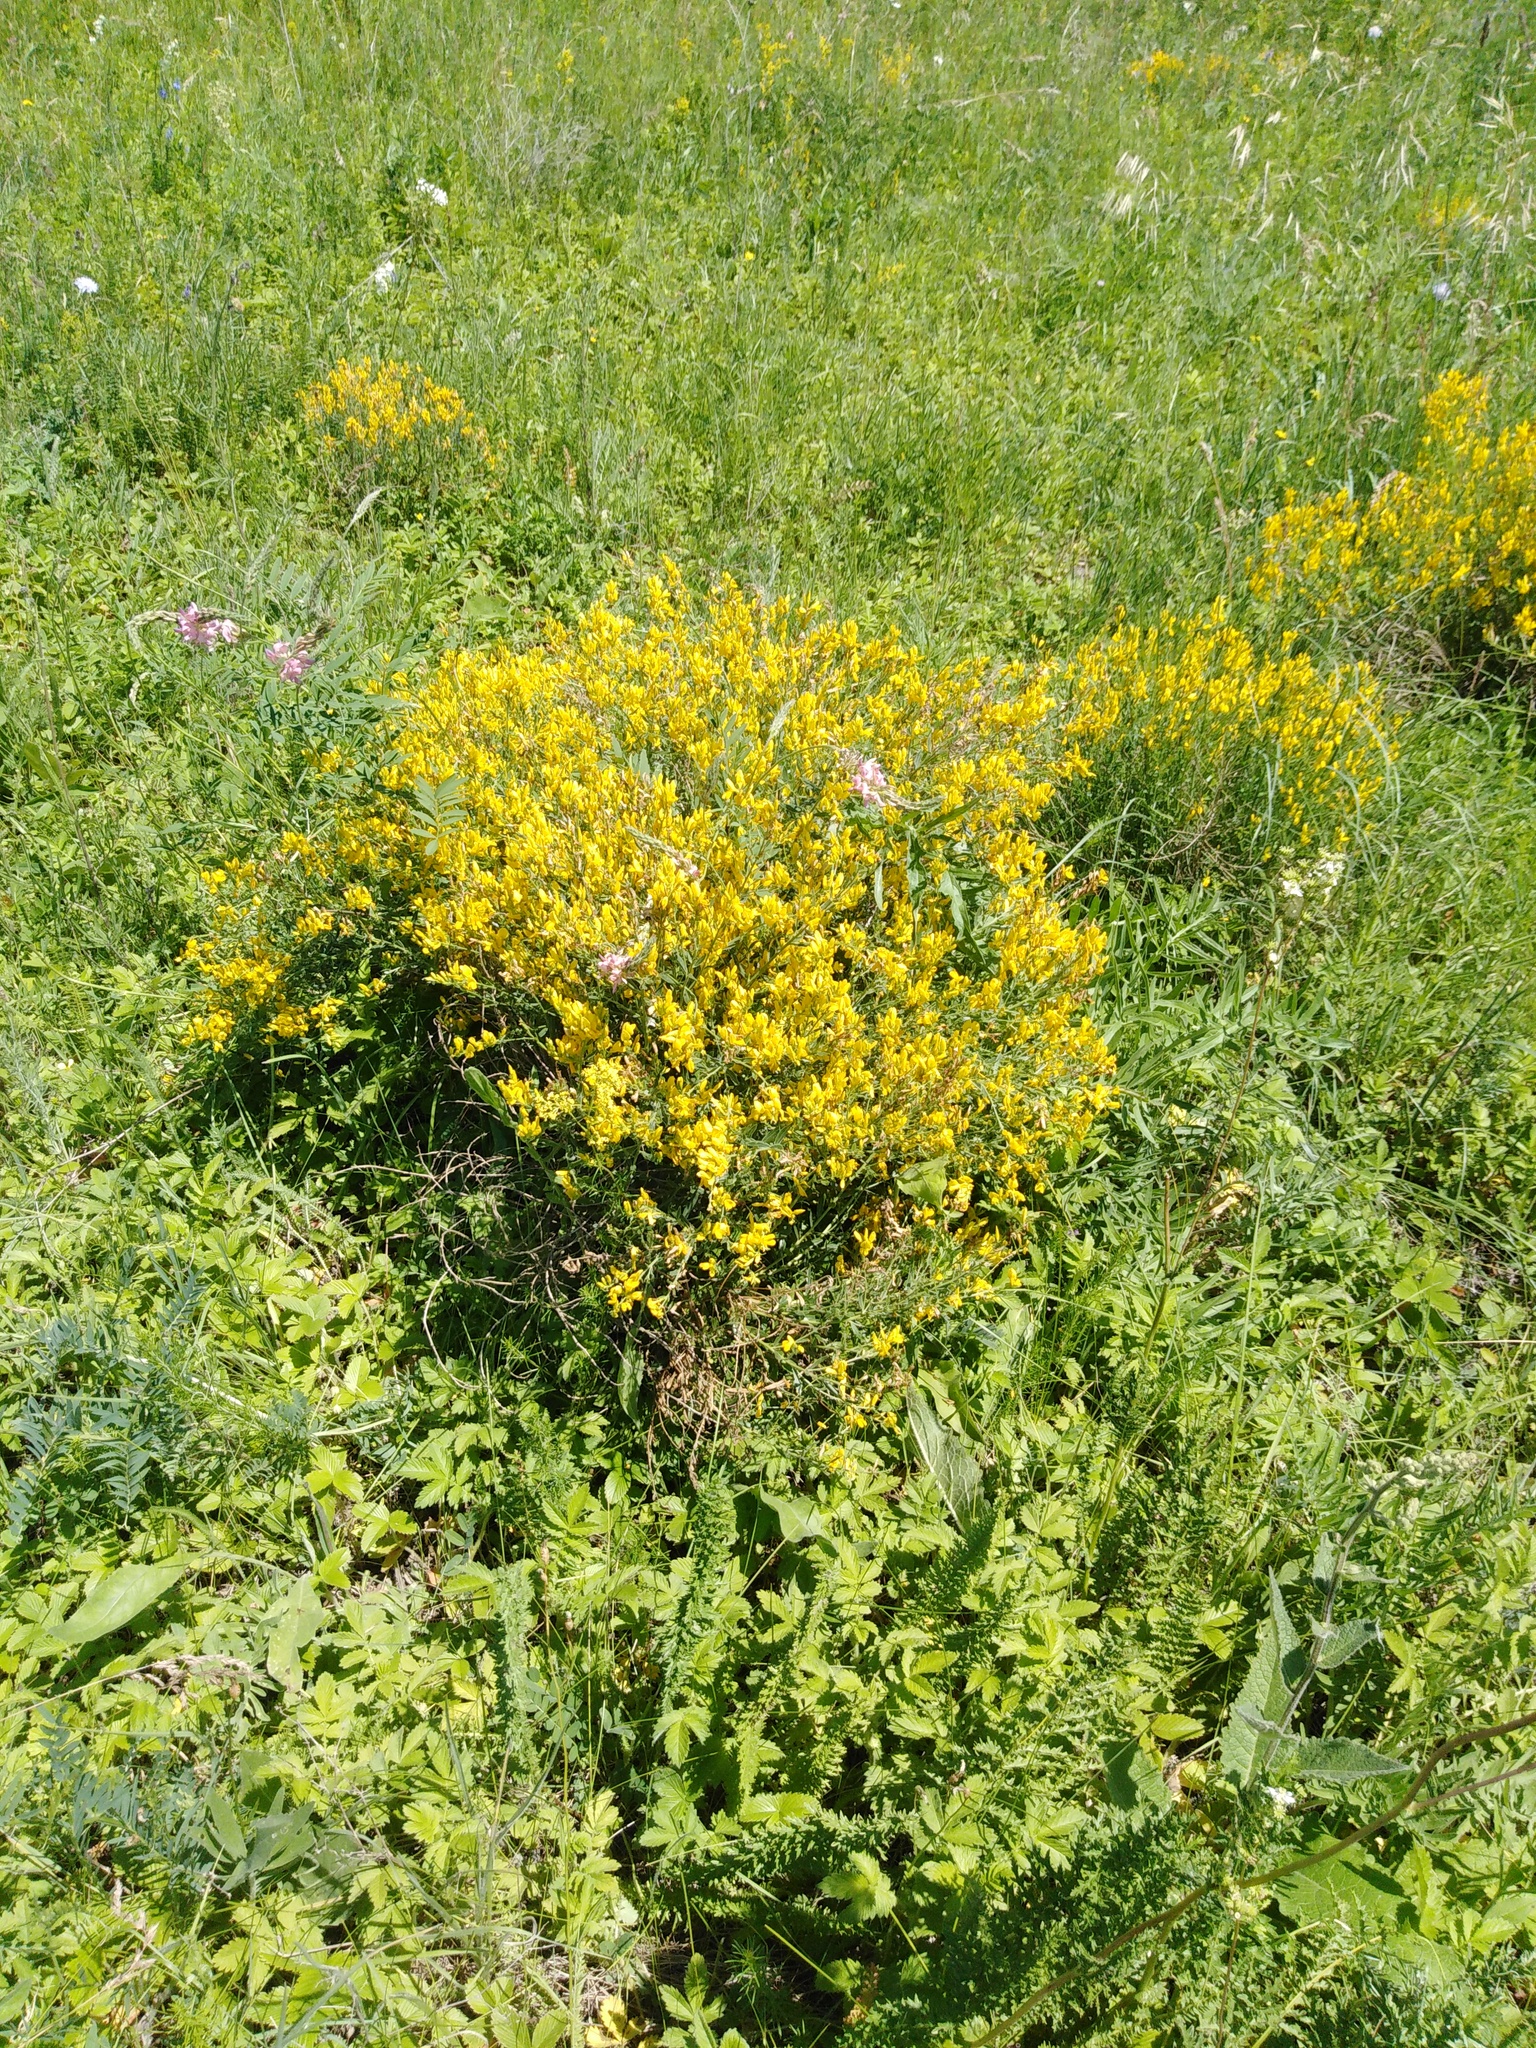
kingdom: Plantae
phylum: Tracheophyta
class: Magnoliopsida
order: Fabales
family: Fabaceae
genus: Genista
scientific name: Genista tinctoria
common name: Dyer's greenweed
